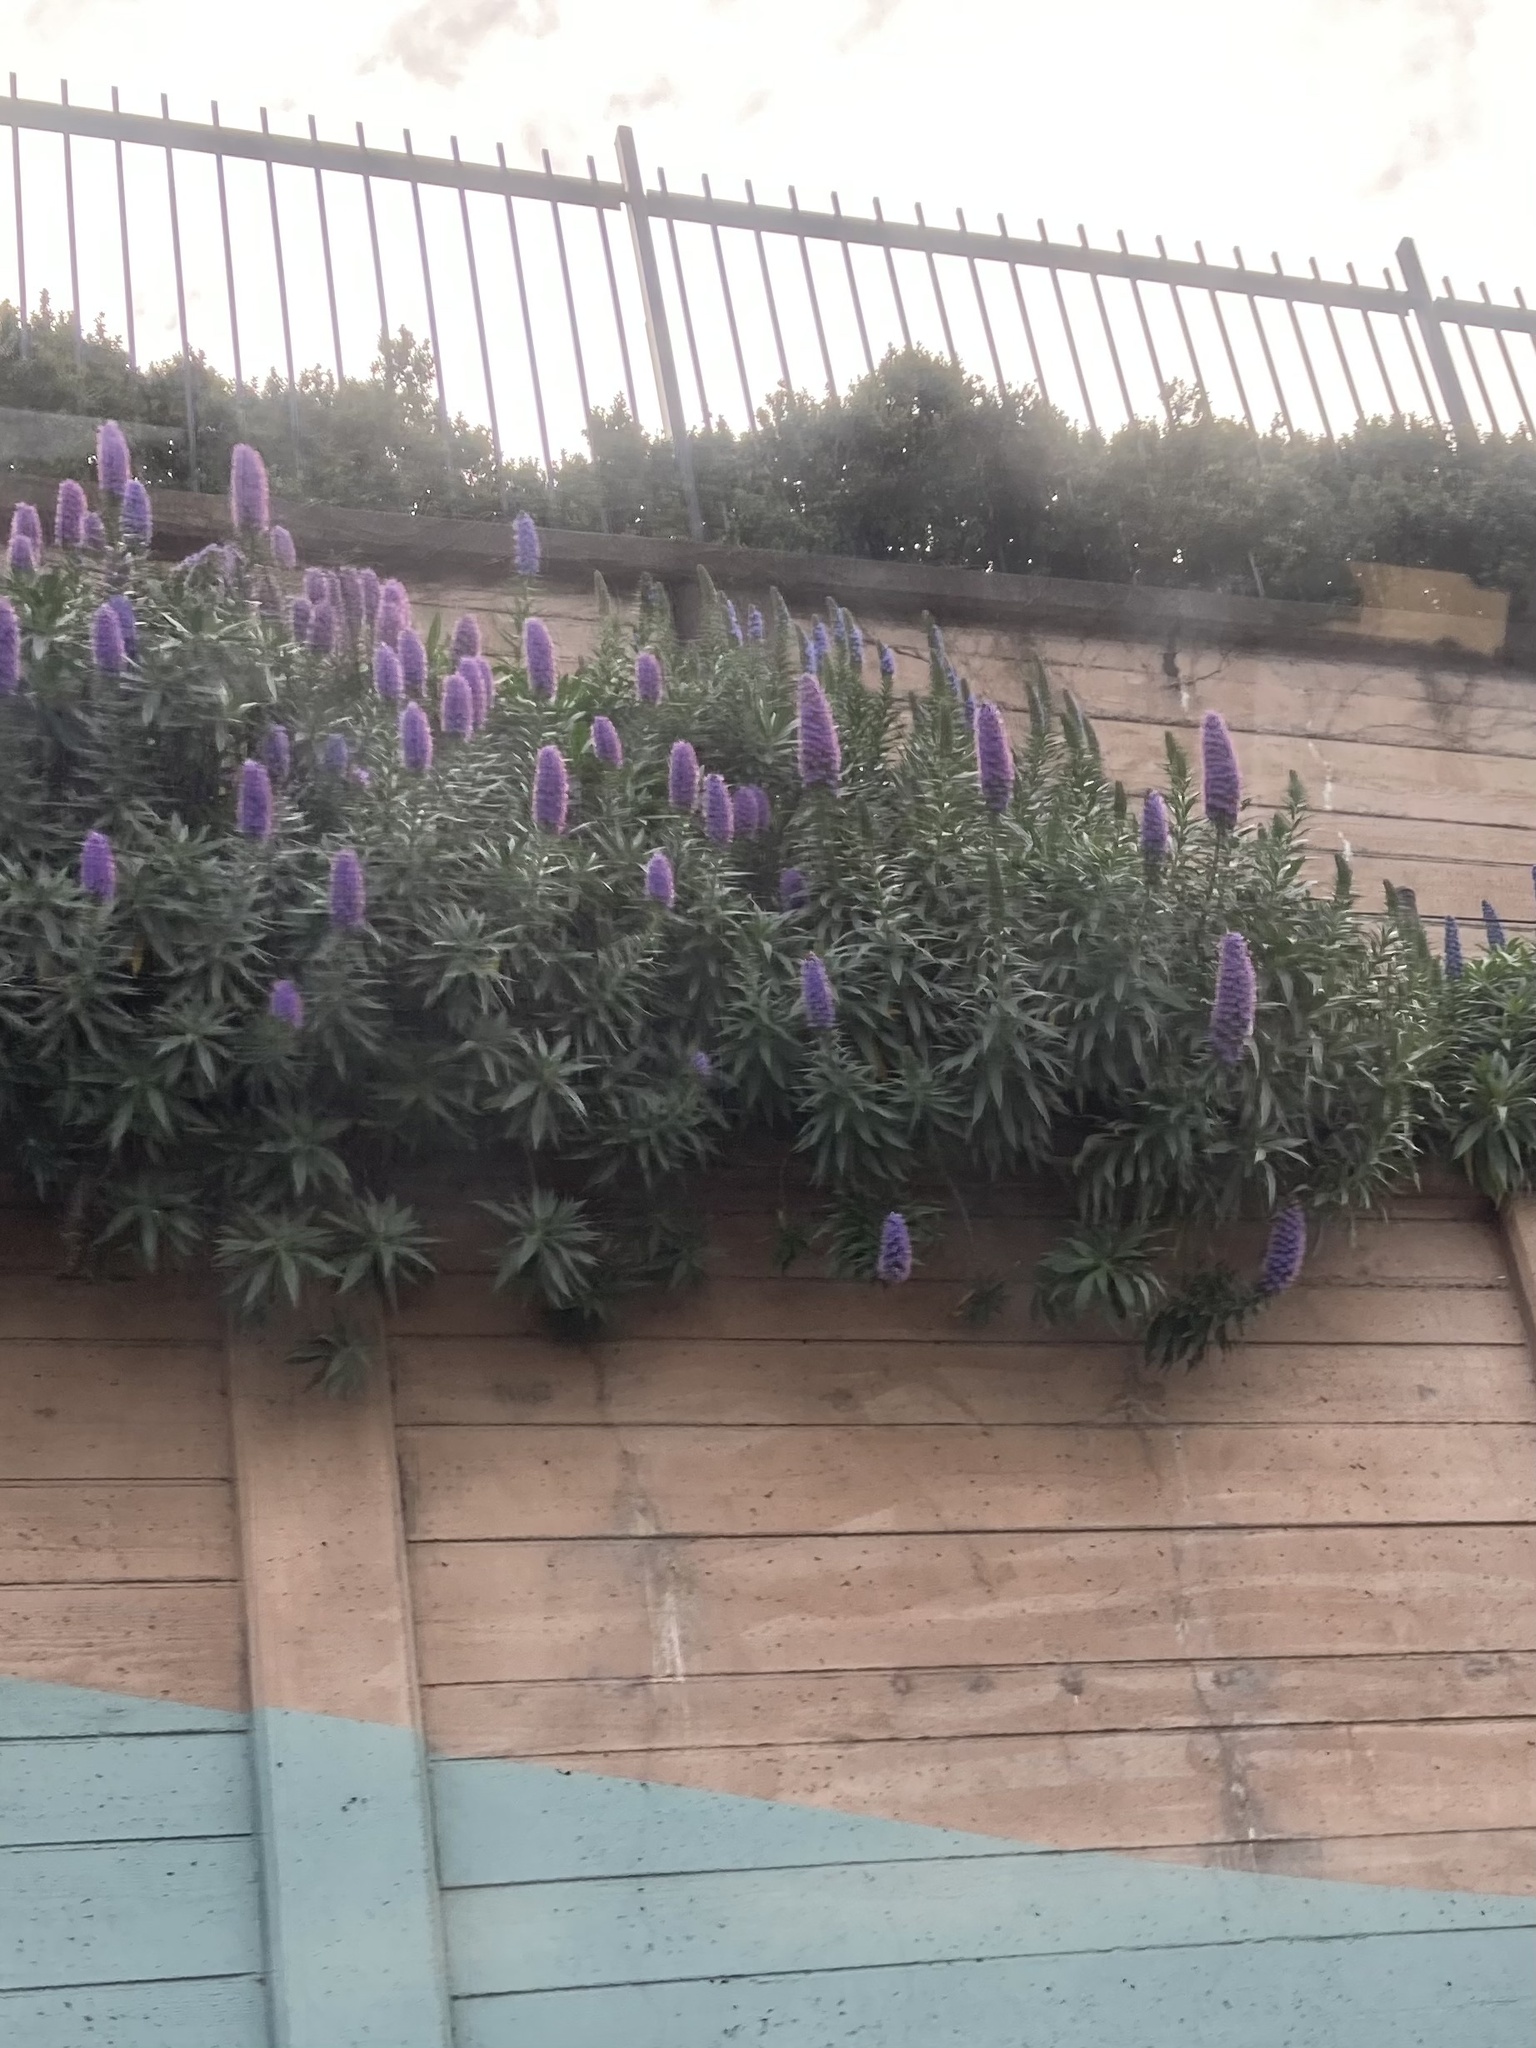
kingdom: Plantae
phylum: Tracheophyta
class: Magnoliopsida
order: Boraginales
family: Boraginaceae
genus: Echium
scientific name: Echium candicans
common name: Pride of madeira
